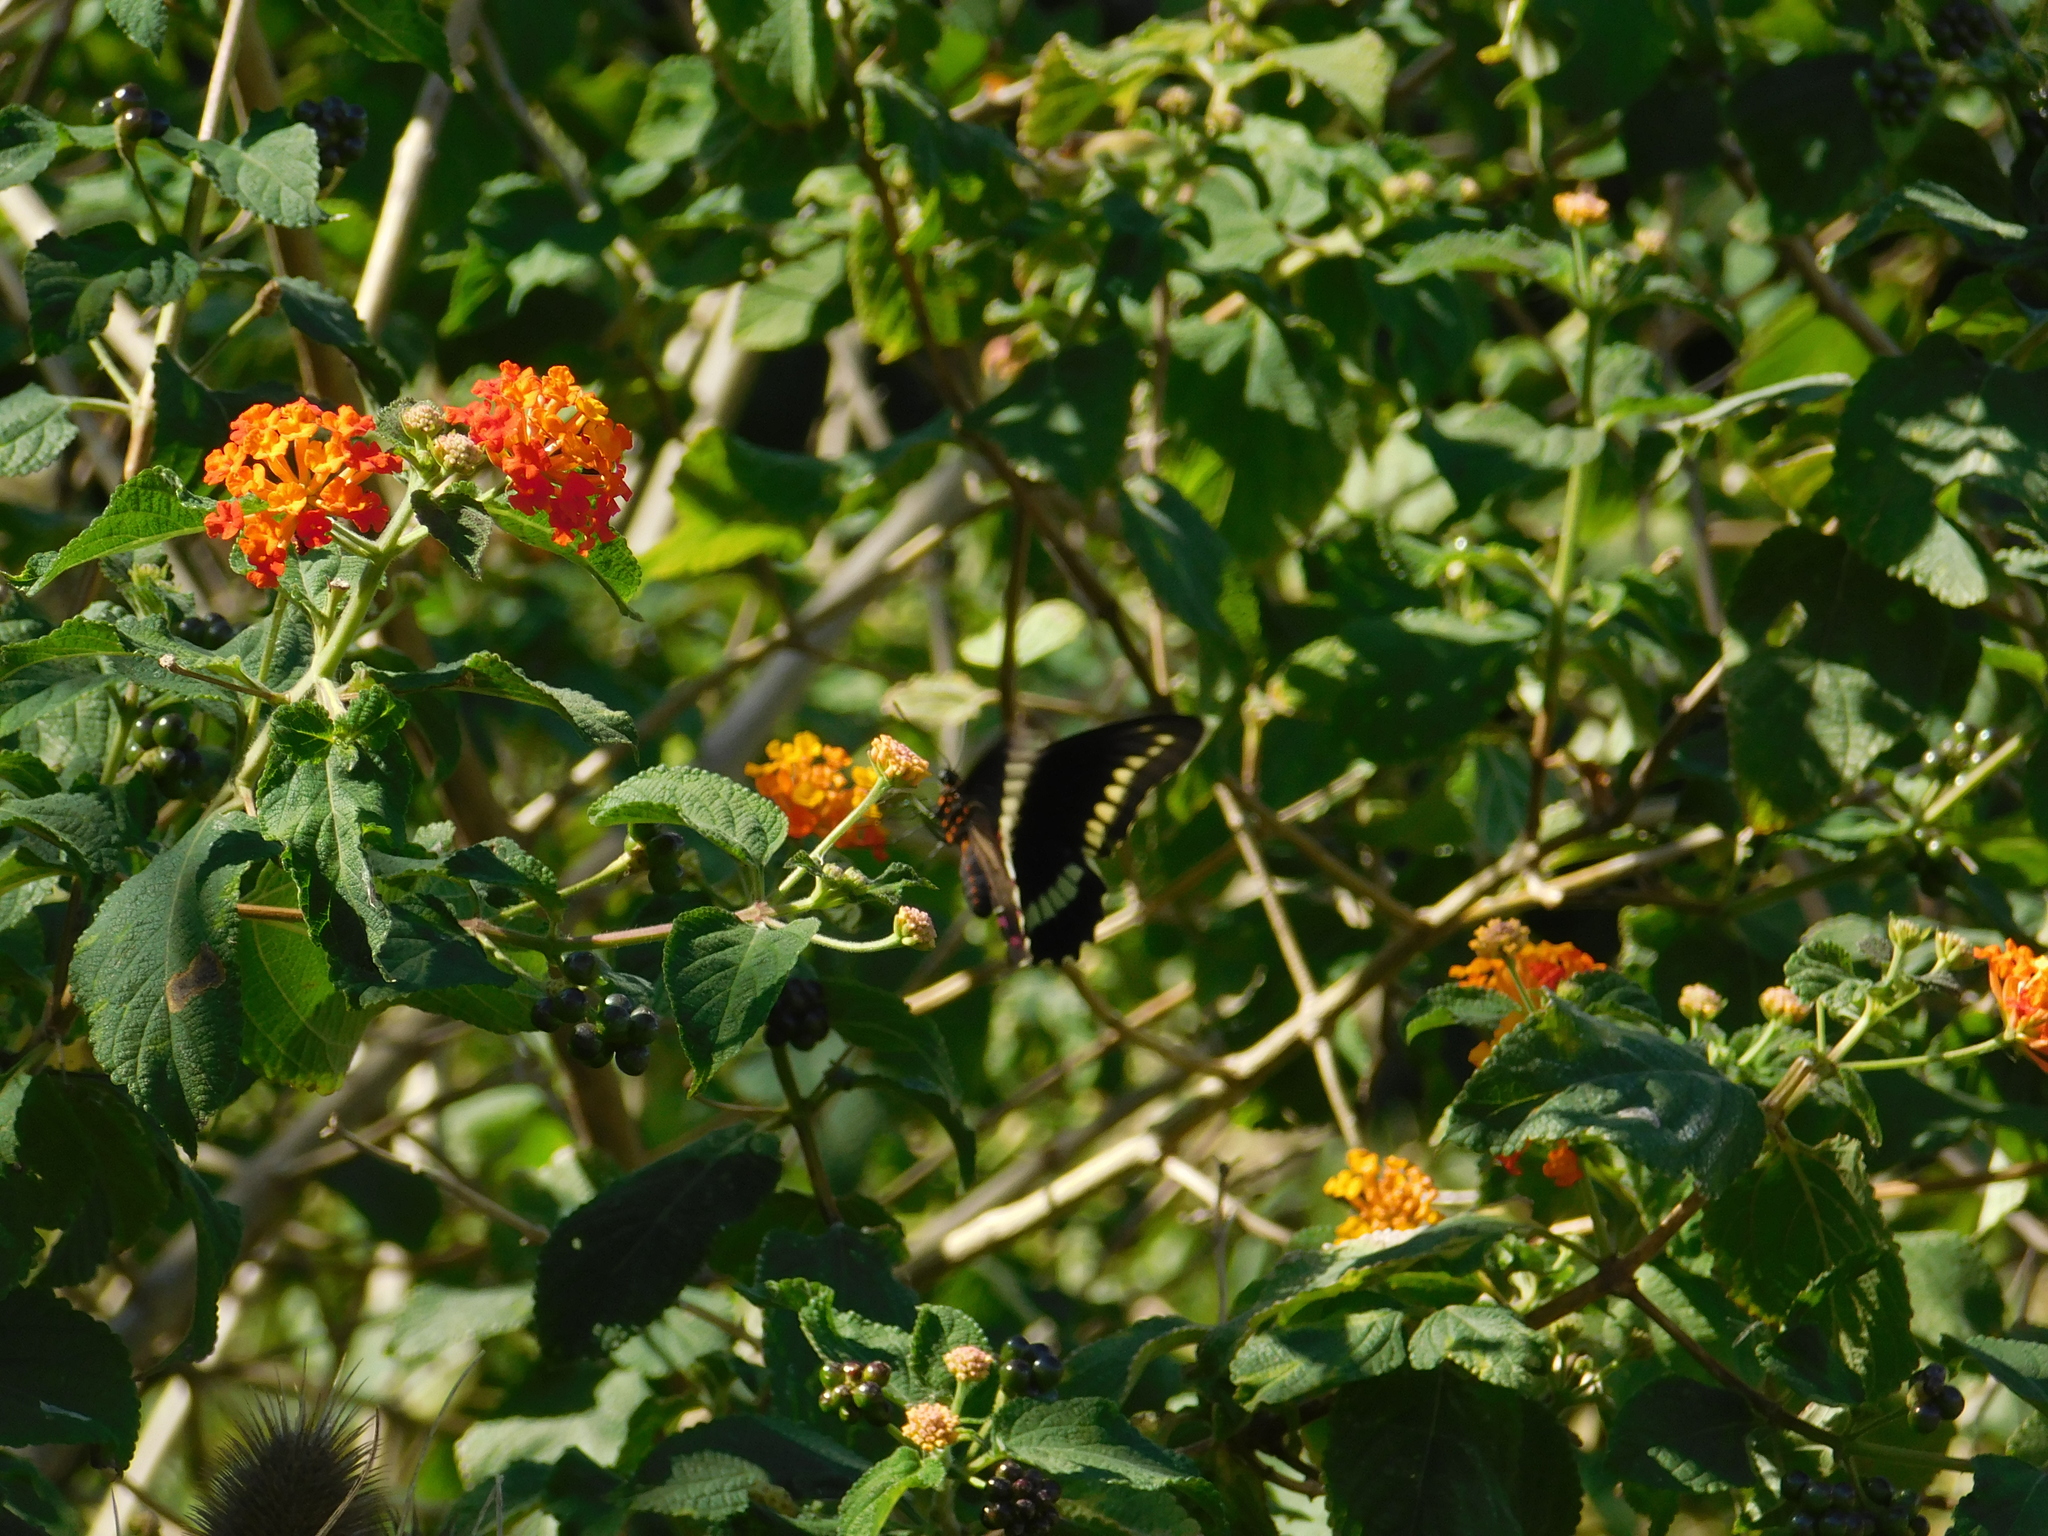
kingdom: Animalia
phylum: Arthropoda
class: Insecta
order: Lepidoptera
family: Papilionidae
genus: Battus
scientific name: Battus polydamas
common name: Polydamas swallowtail
